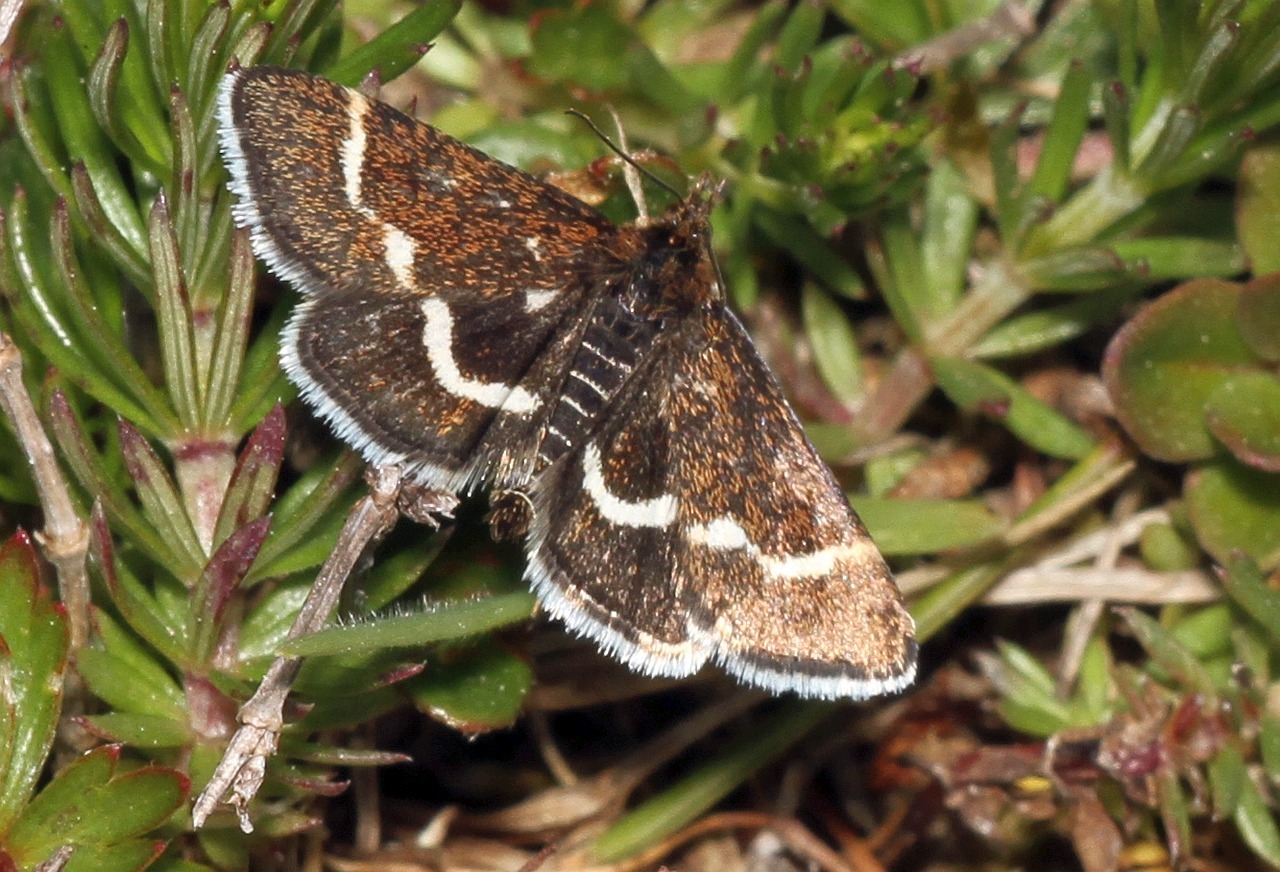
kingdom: Animalia
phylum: Arthropoda
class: Insecta
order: Lepidoptera
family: Crambidae
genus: Pyrausta
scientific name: Pyrausta nigrata
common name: Wavy-barred sable
